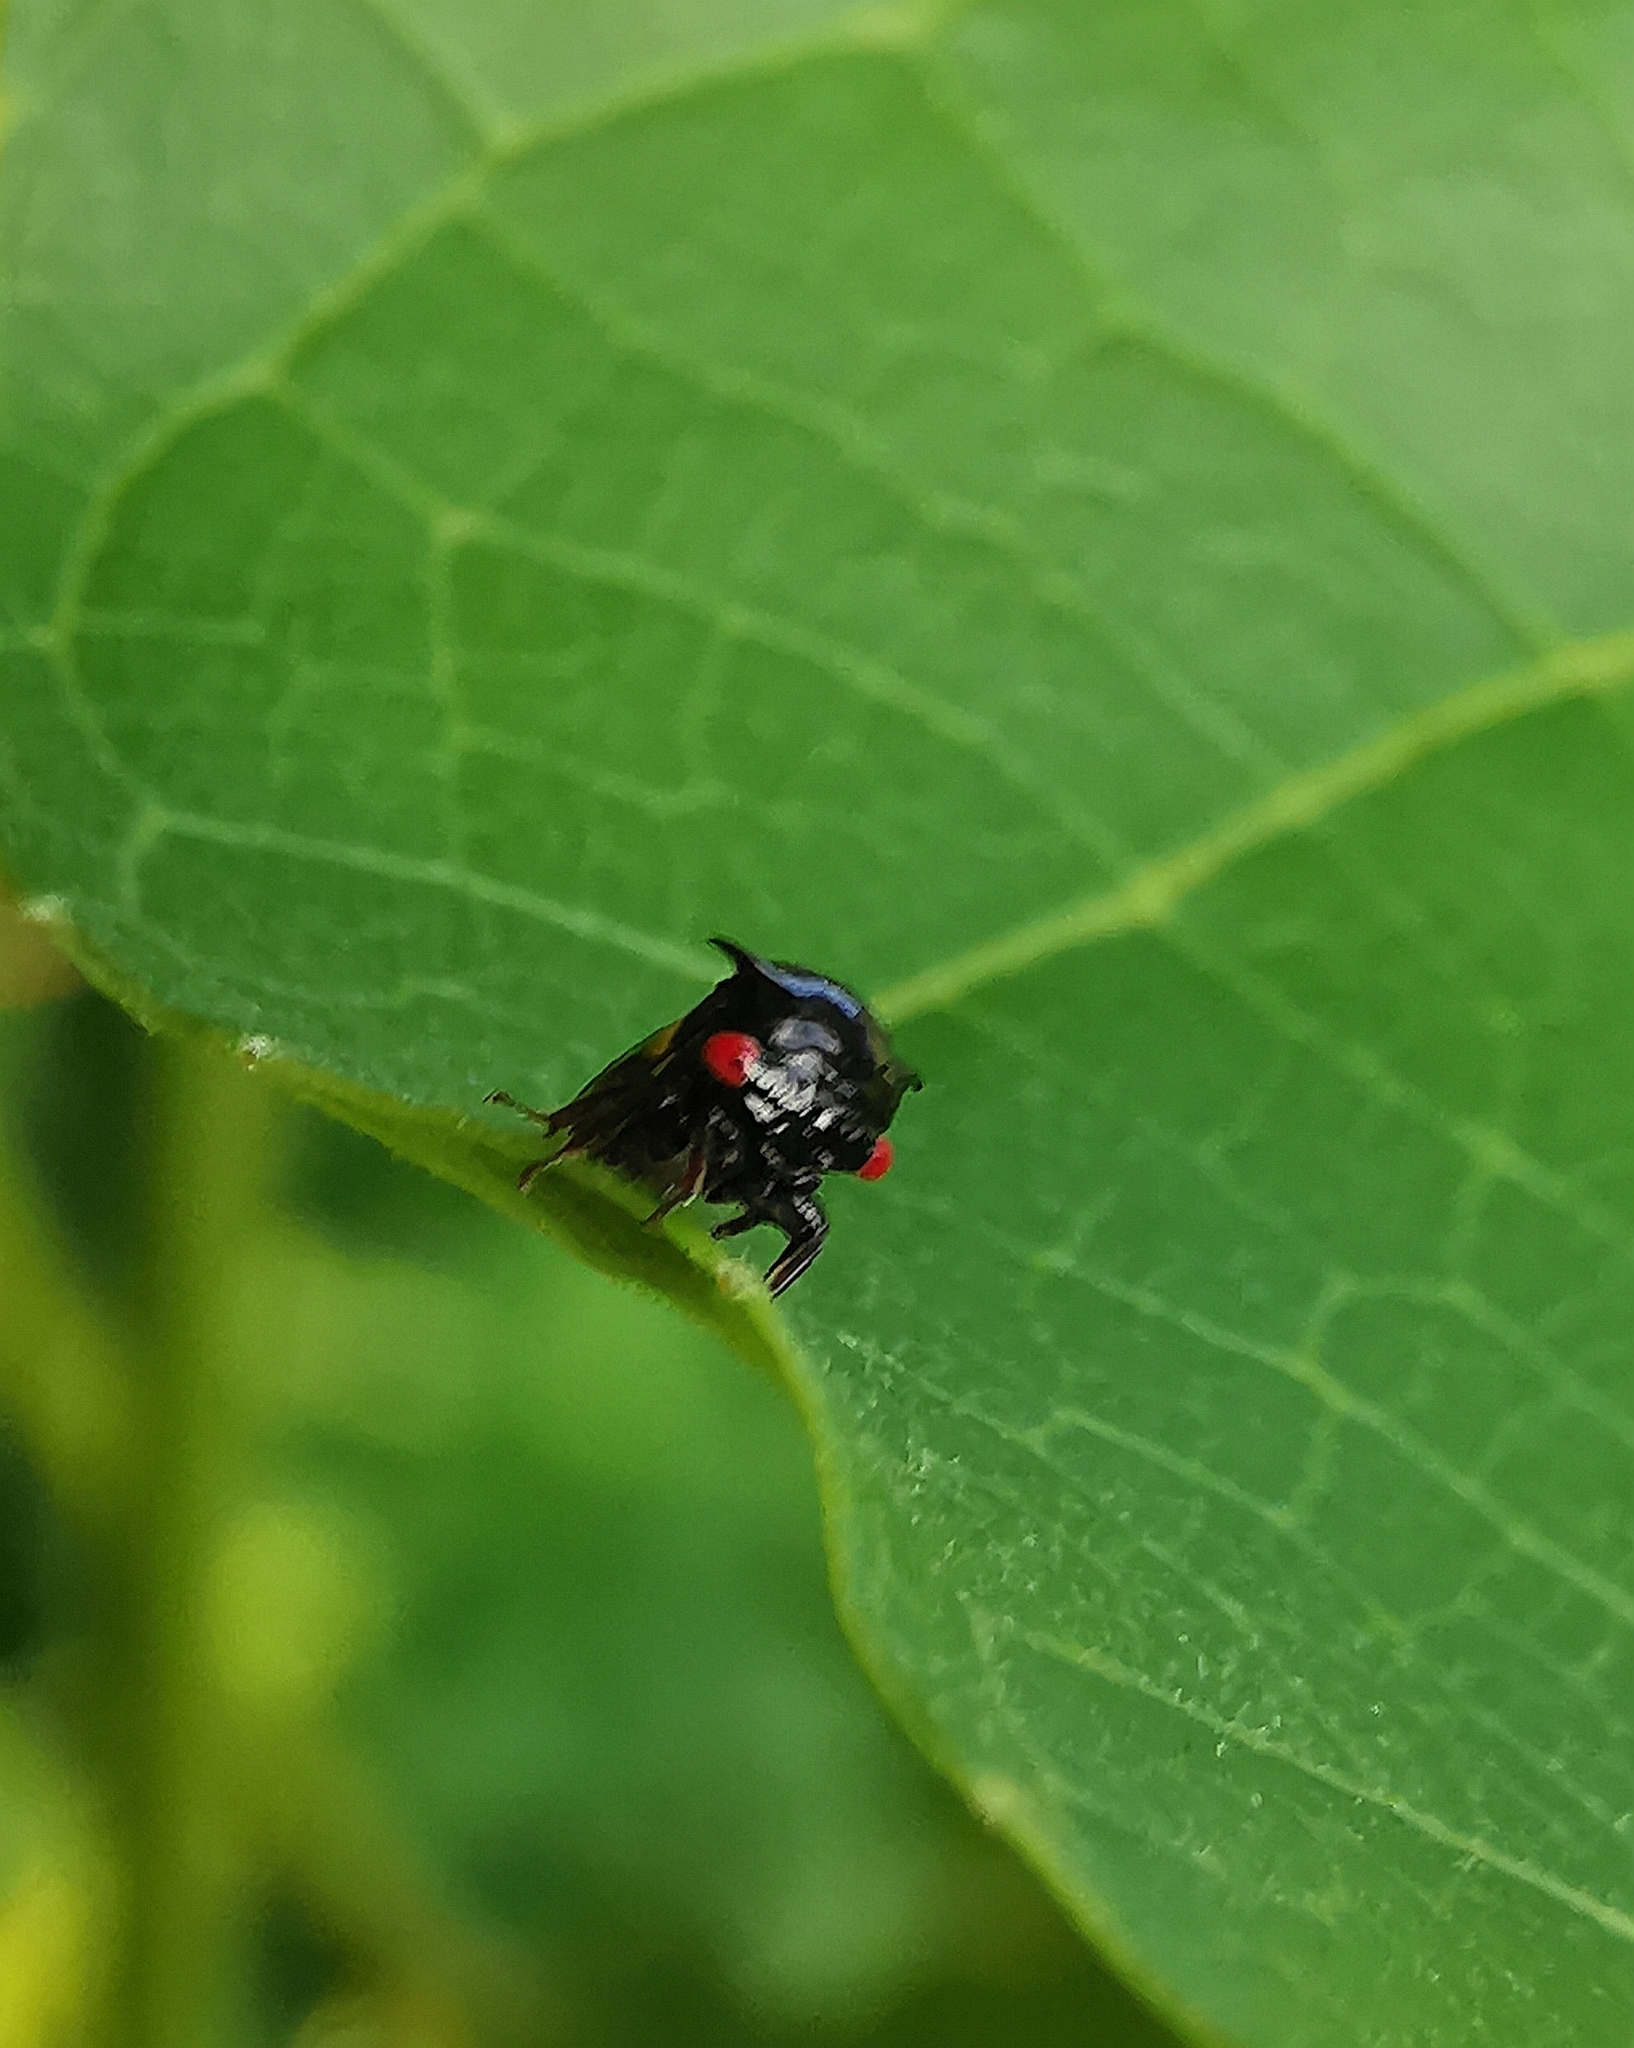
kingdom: Animalia
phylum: Arthropoda
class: Insecta
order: Hemiptera
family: Membracidae
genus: Tricentrus
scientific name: Tricentrus fulgidus
